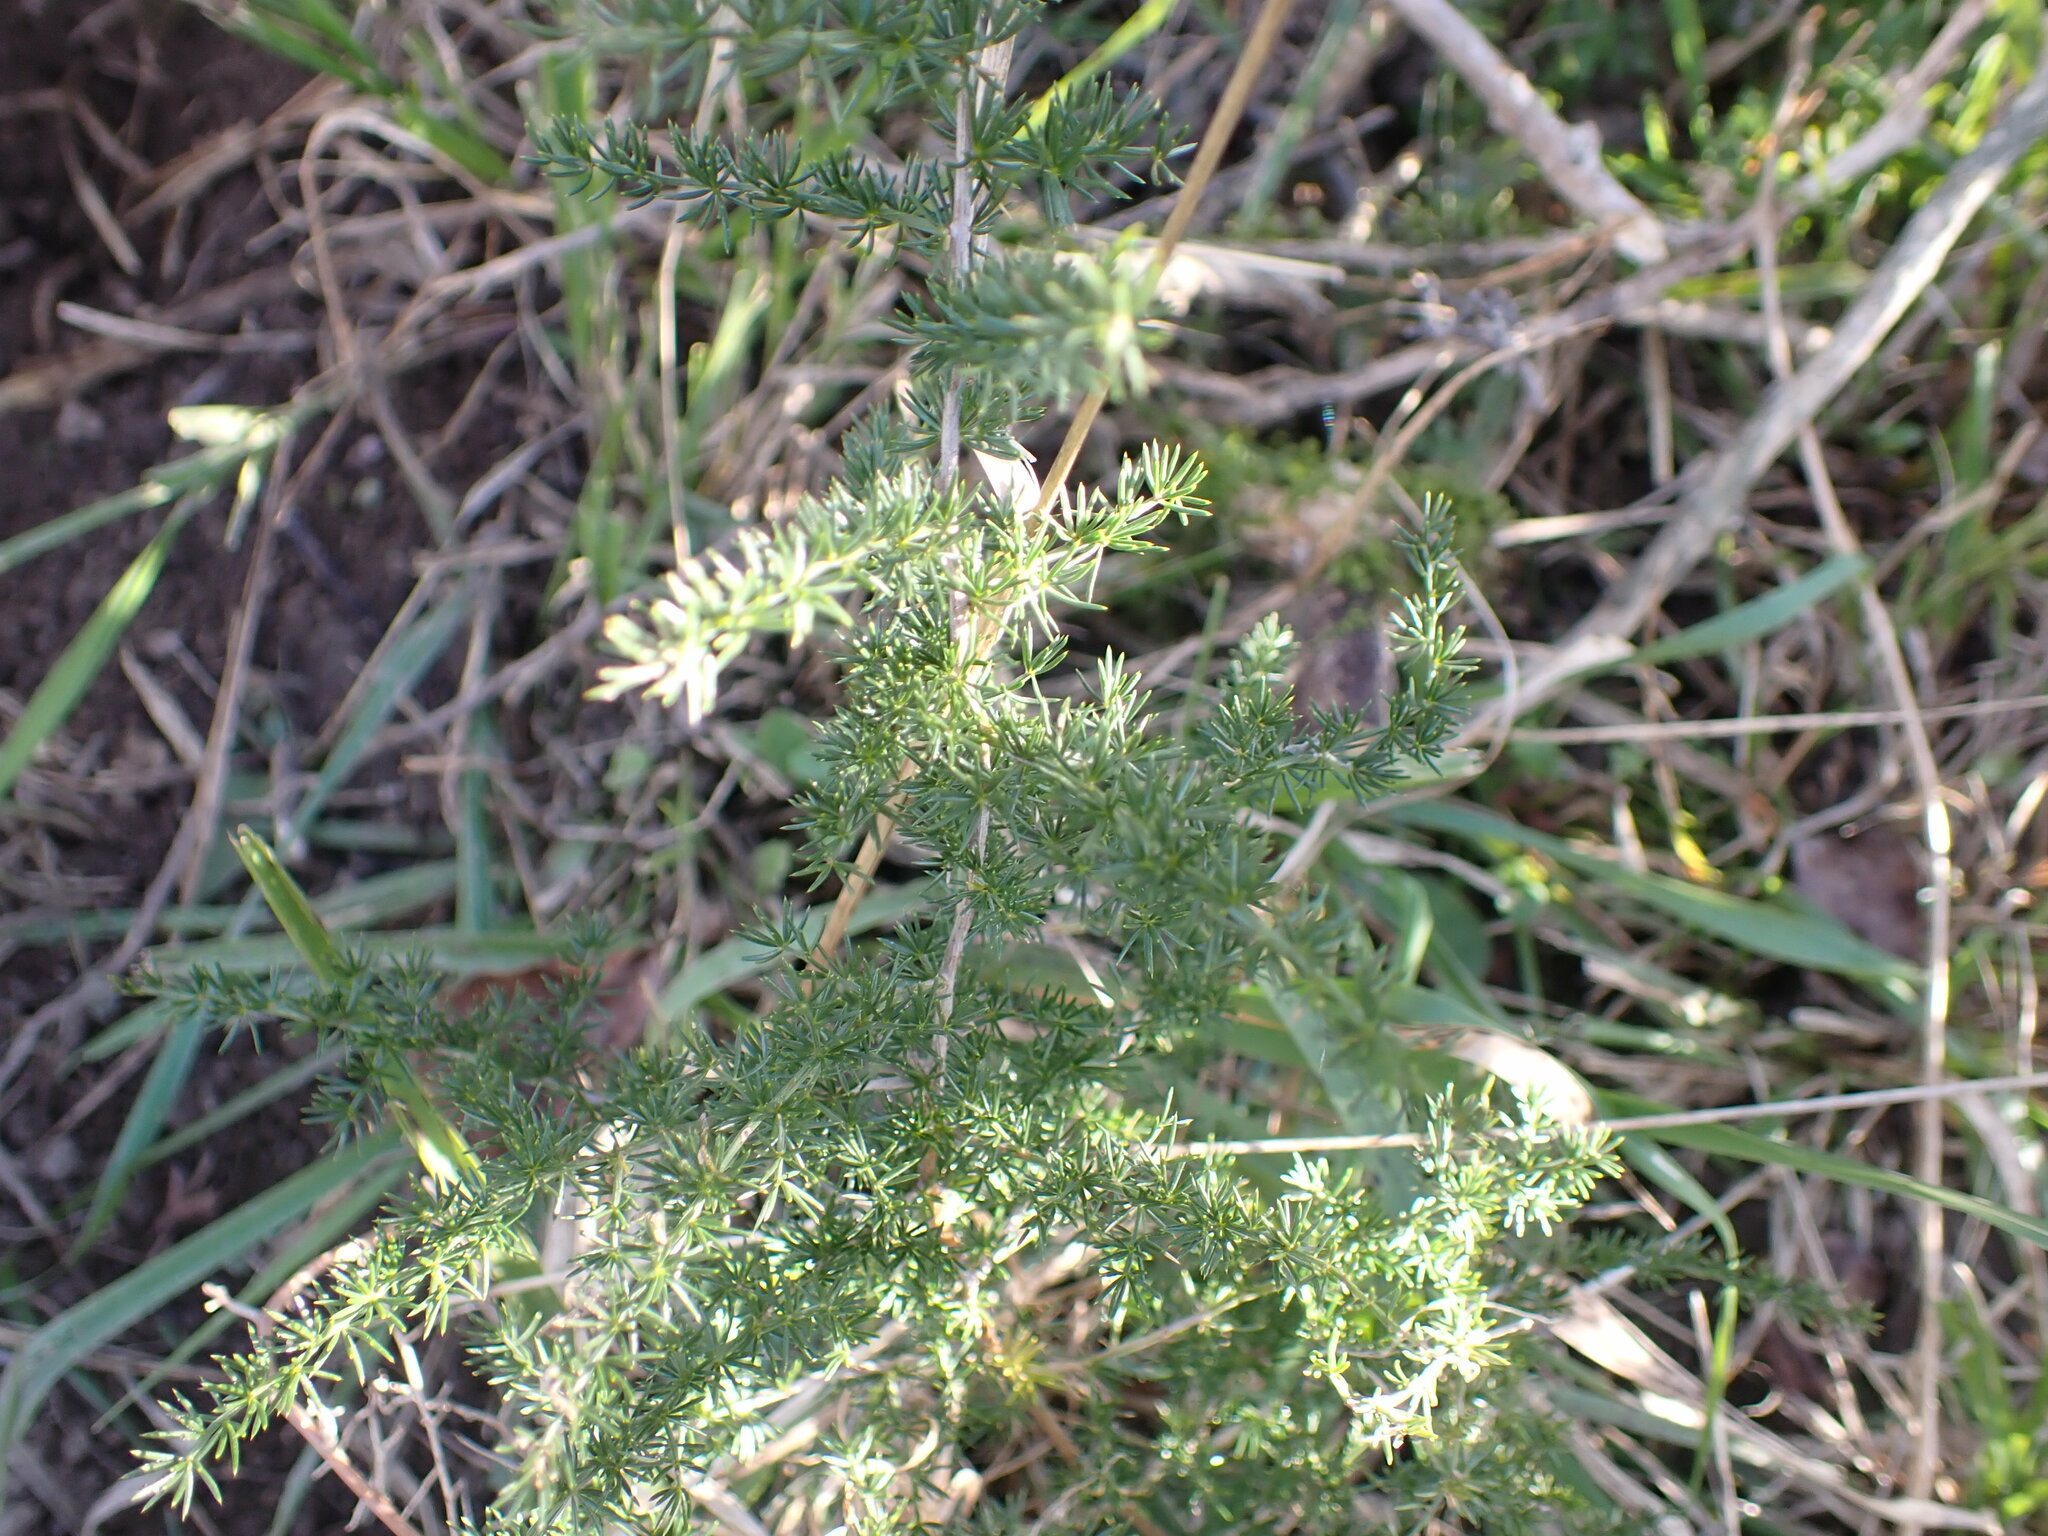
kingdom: Plantae
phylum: Tracheophyta
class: Liliopsida
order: Asparagales
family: Asparagaceae
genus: Asparagus
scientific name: Asparagus acutifolius
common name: Wild asparagus
